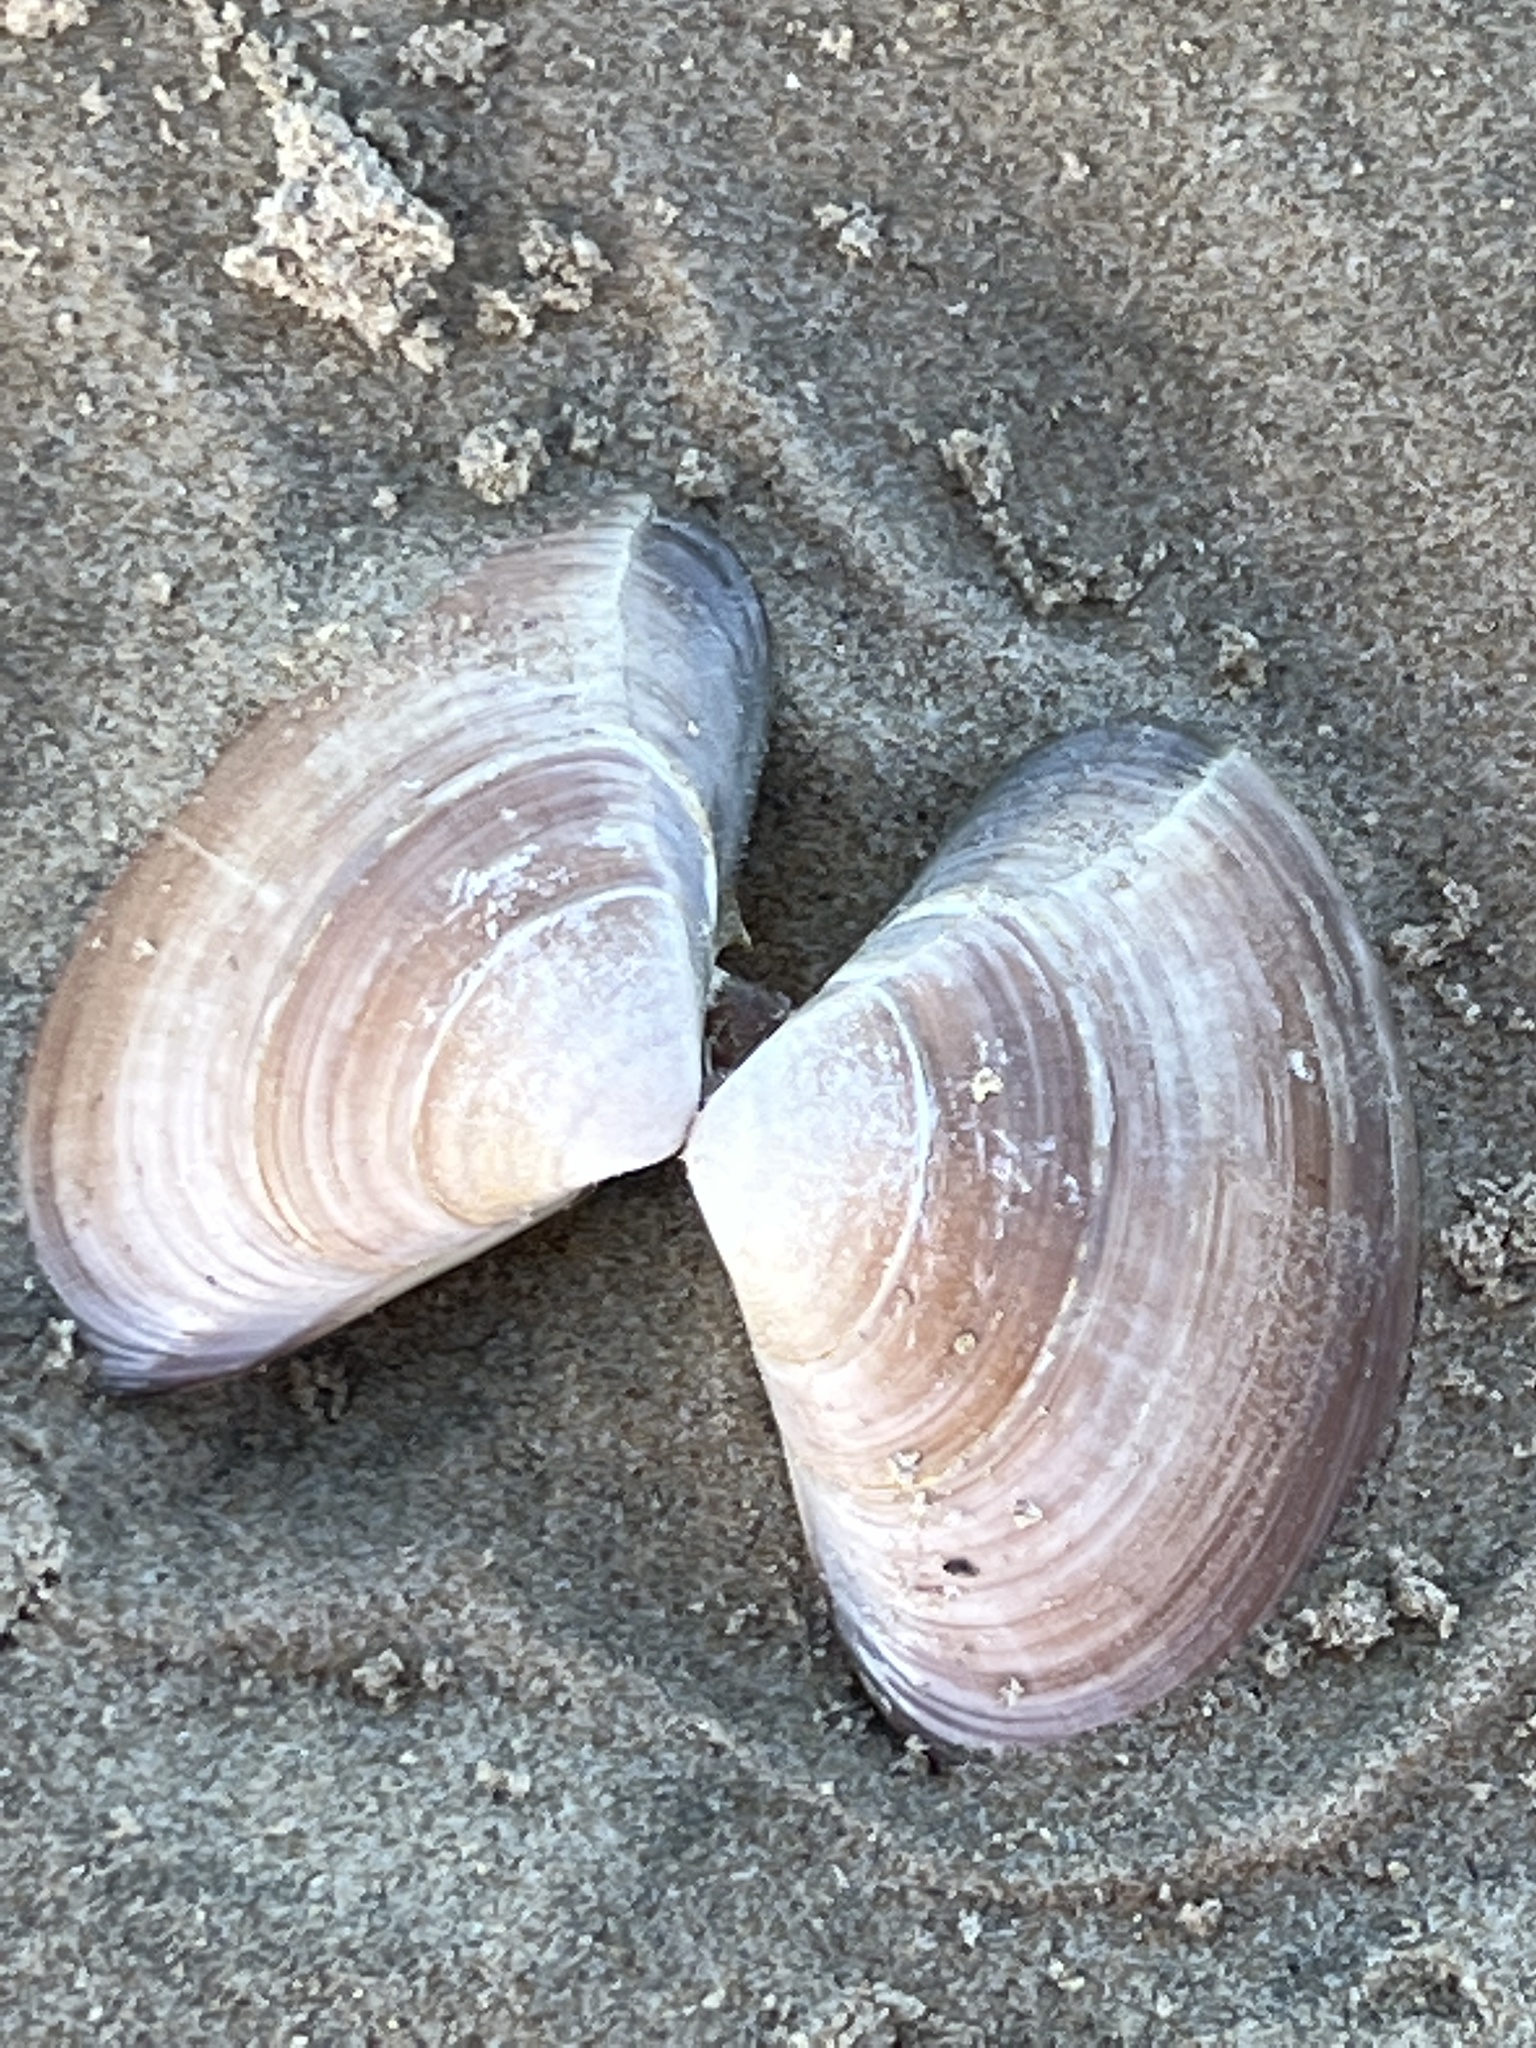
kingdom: Animalia
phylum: Mollusca
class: Bivalvia
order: Venerida
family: Veneridae
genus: Tivela
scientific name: Tivela stultorum
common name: Pismo clam
